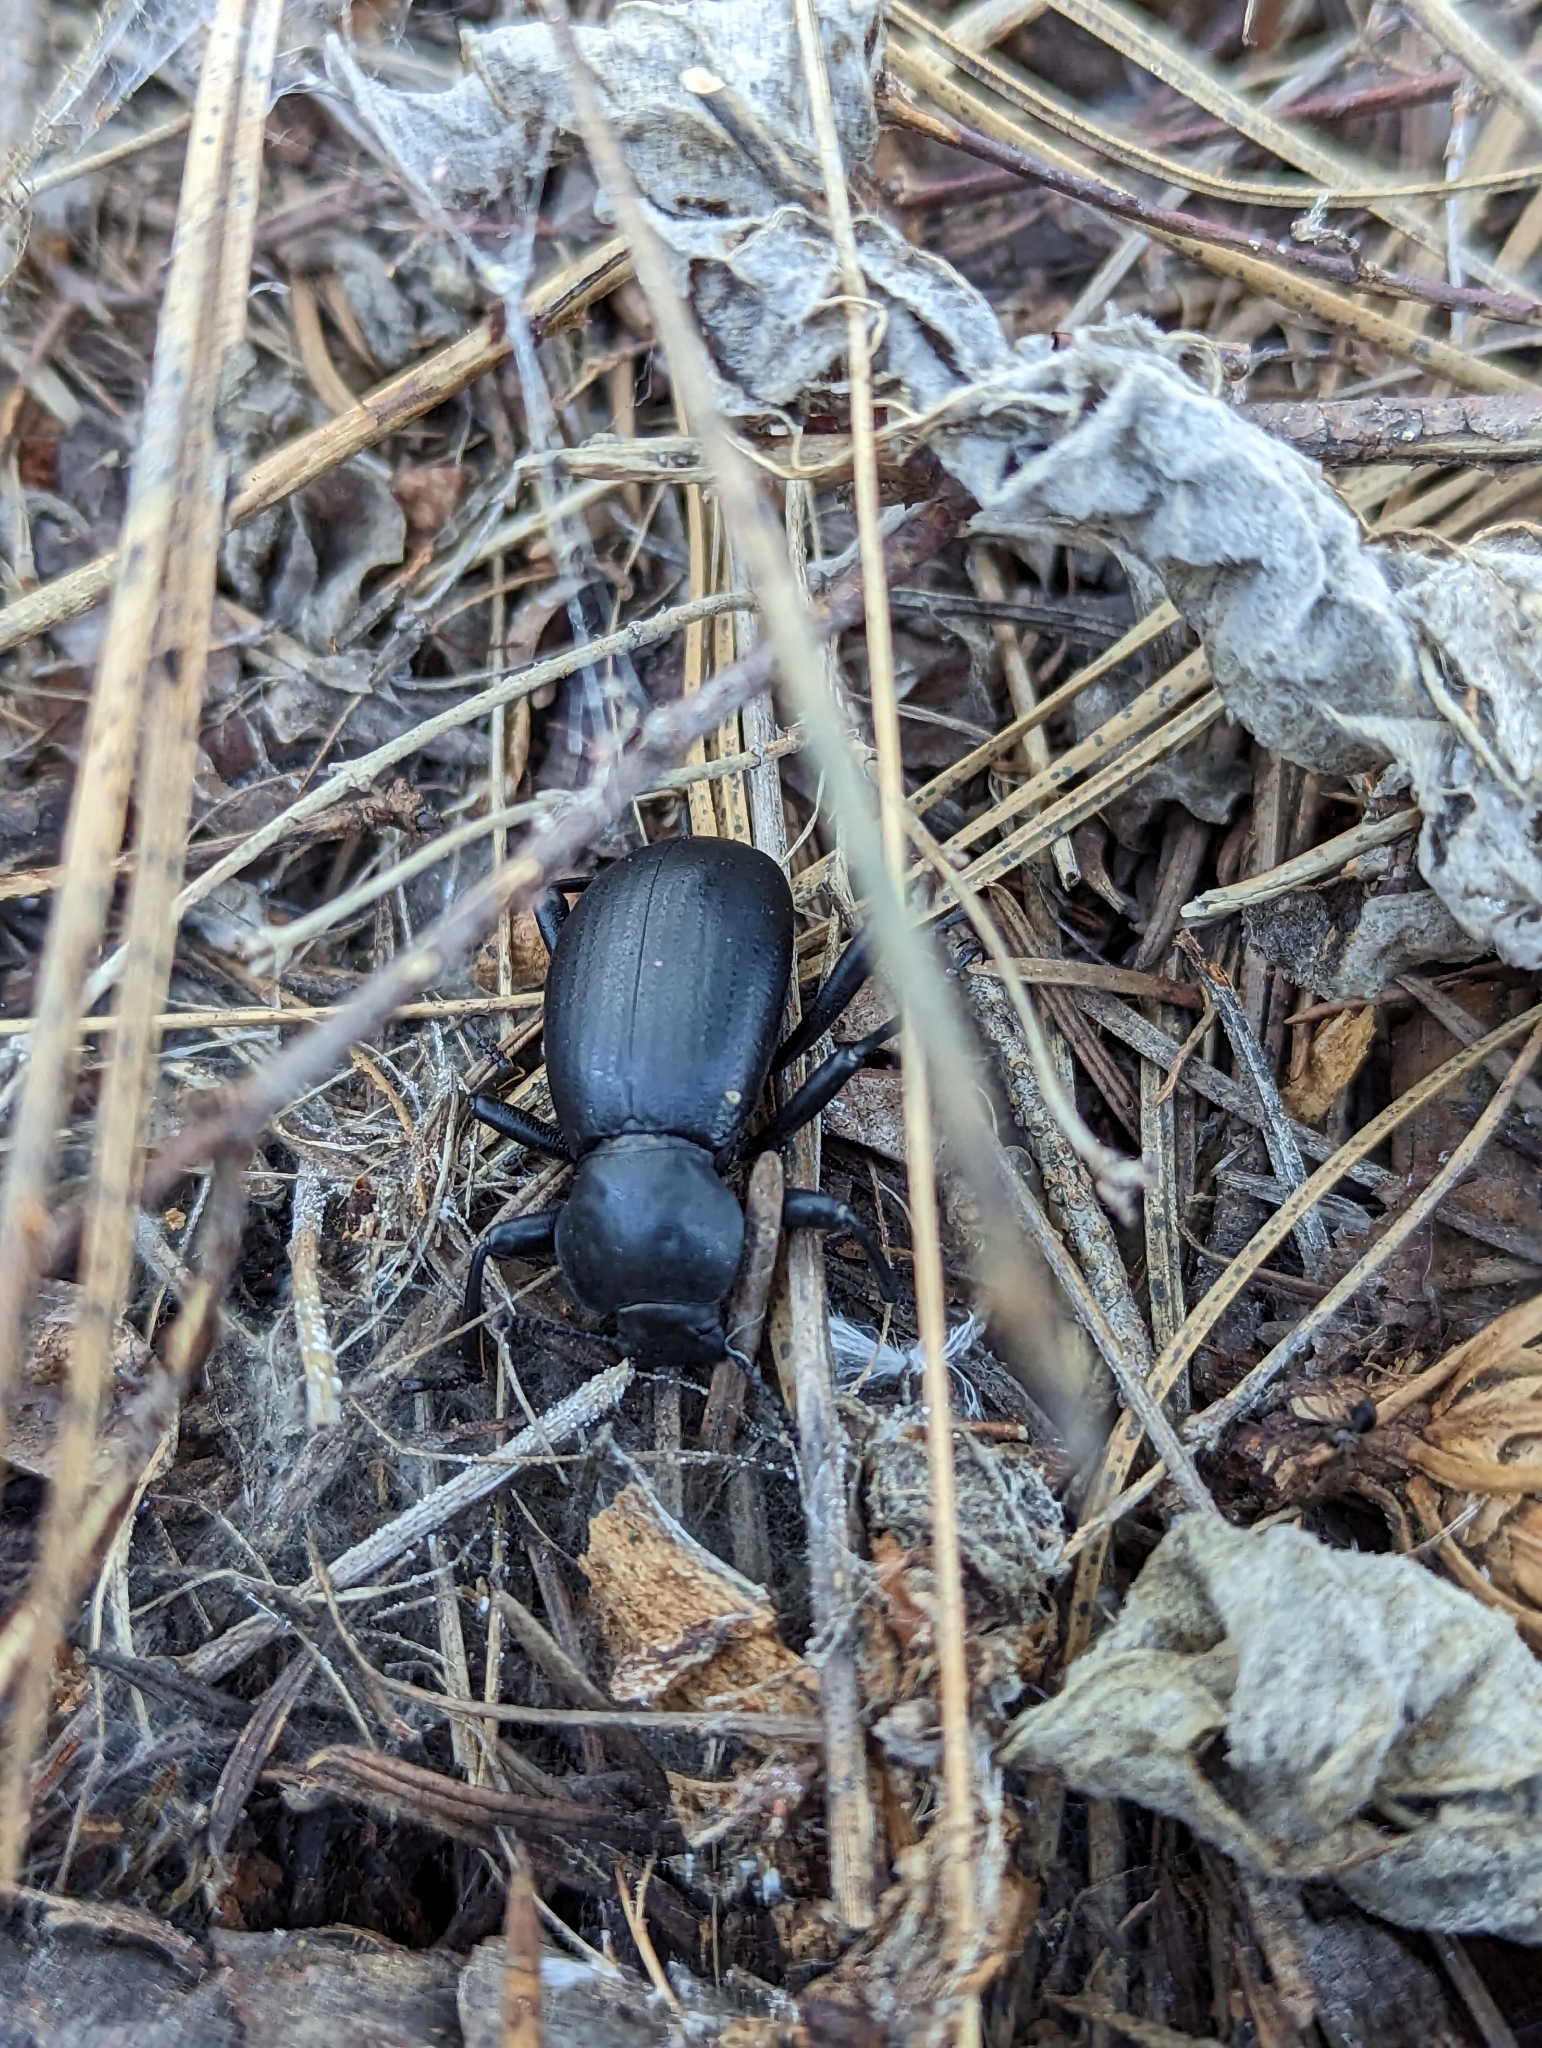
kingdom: Animalia
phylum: Arthropoda
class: Insecta
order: Coleoptera
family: Tenebrionidae
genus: Coelocnemis
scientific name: Coelocnemis dilaticollis
